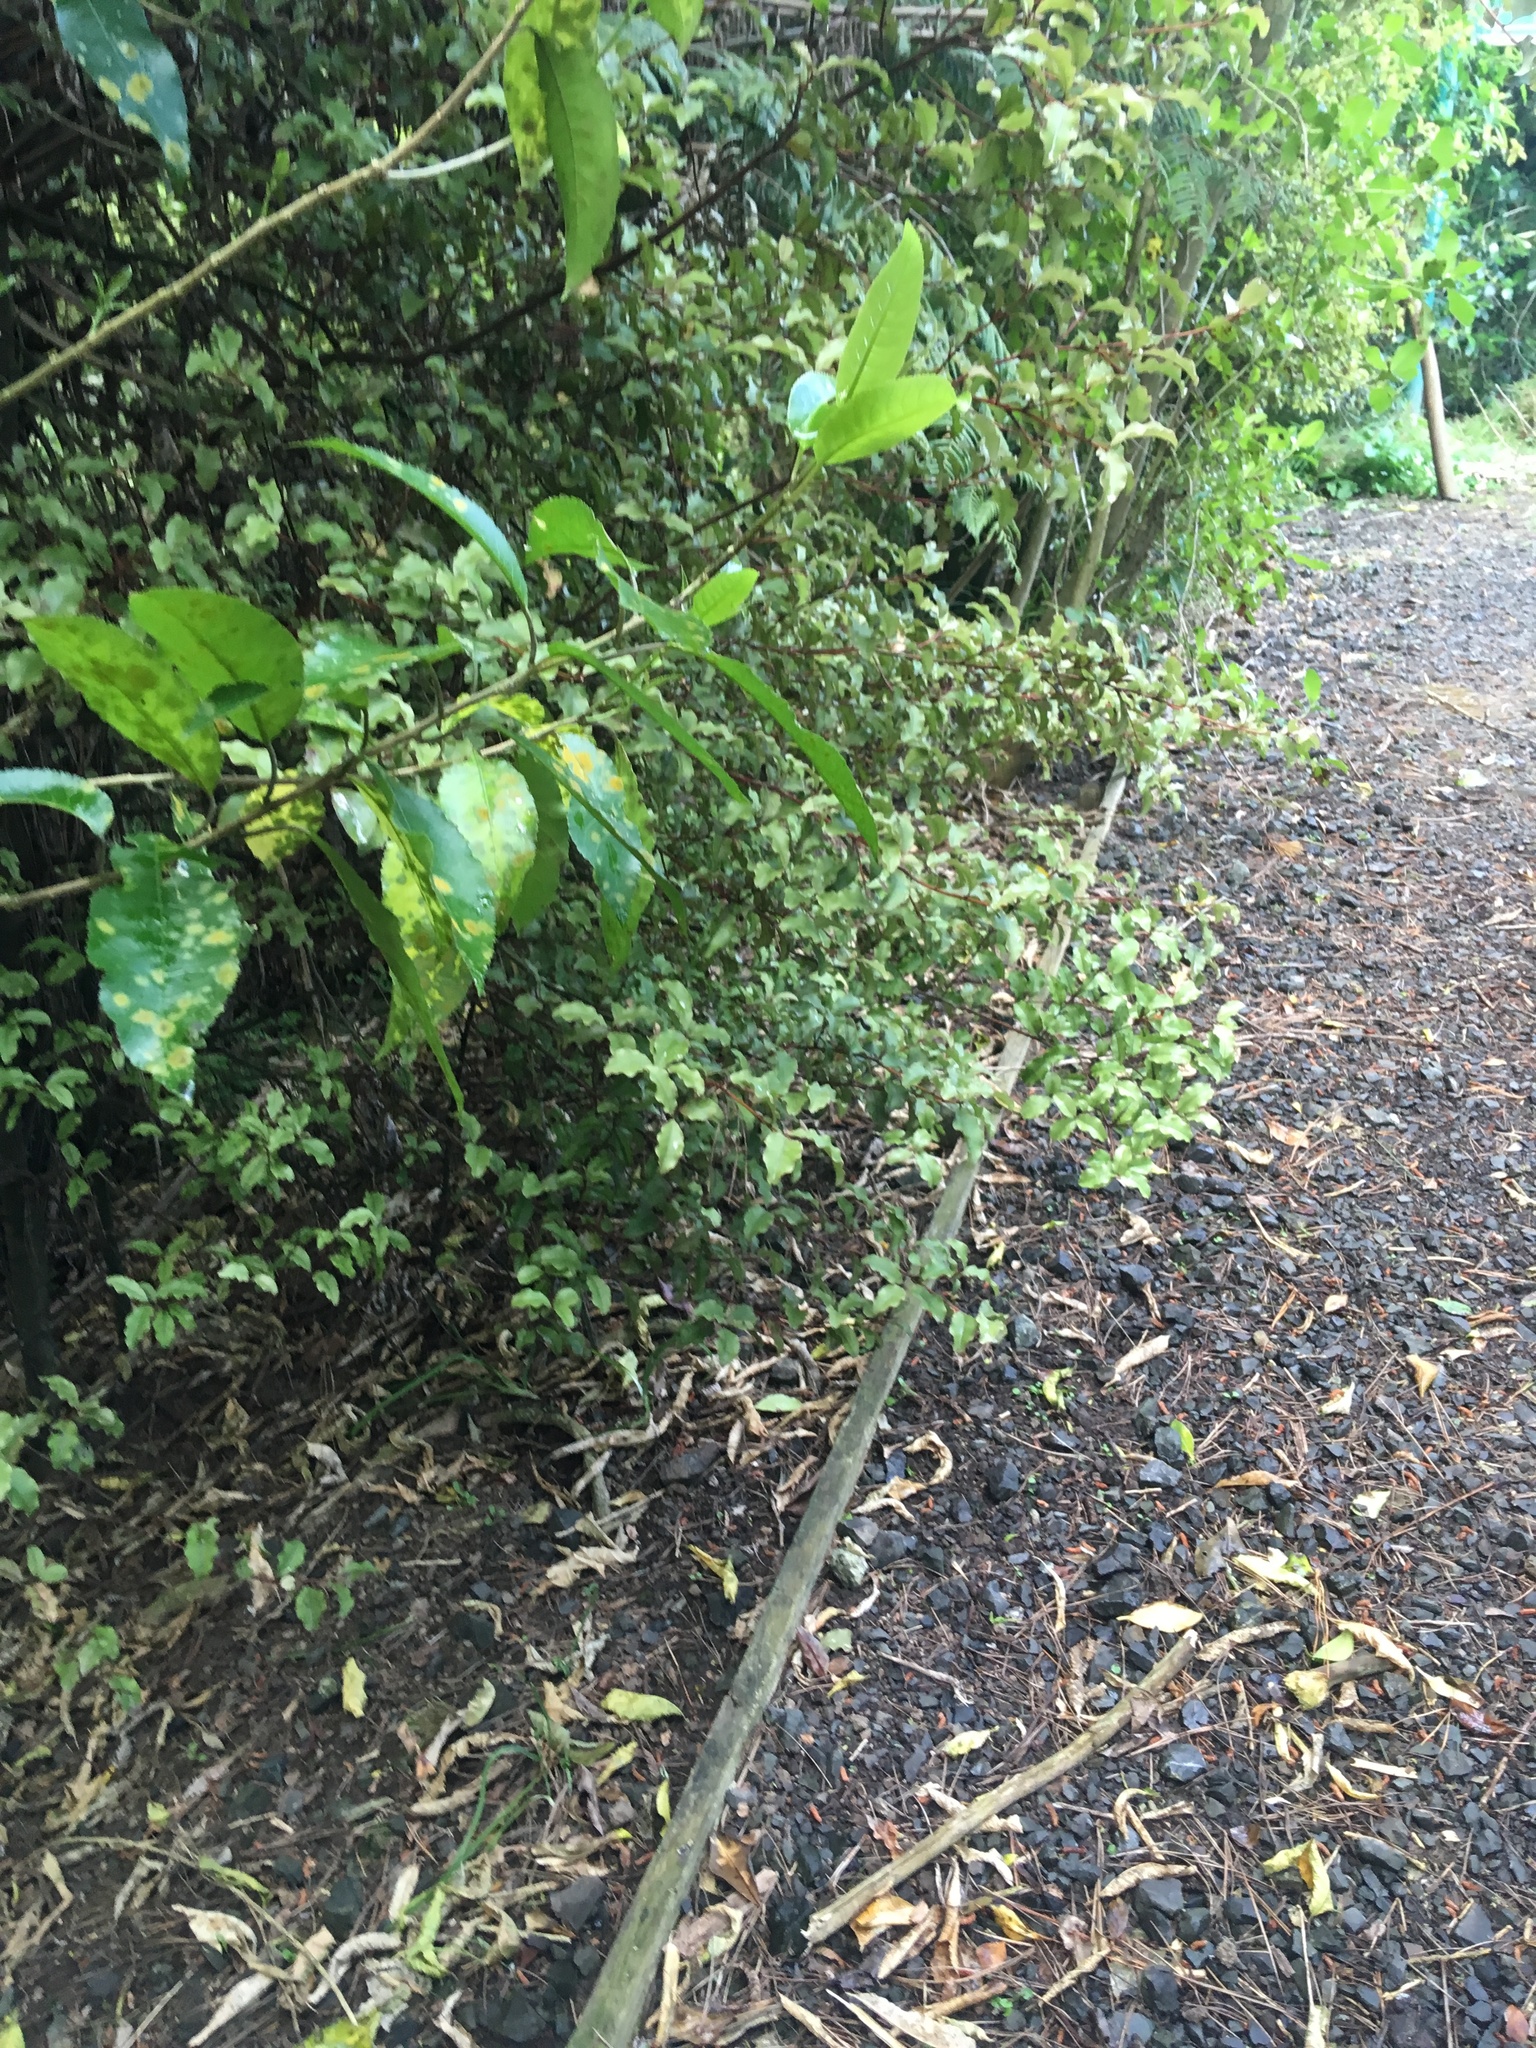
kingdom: Plantae
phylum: Tracheophyta
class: Magnoliopsida
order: Malpighiales
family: Violaceae
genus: Melicytus
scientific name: Melicytus ramiflorus
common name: Mahoe
